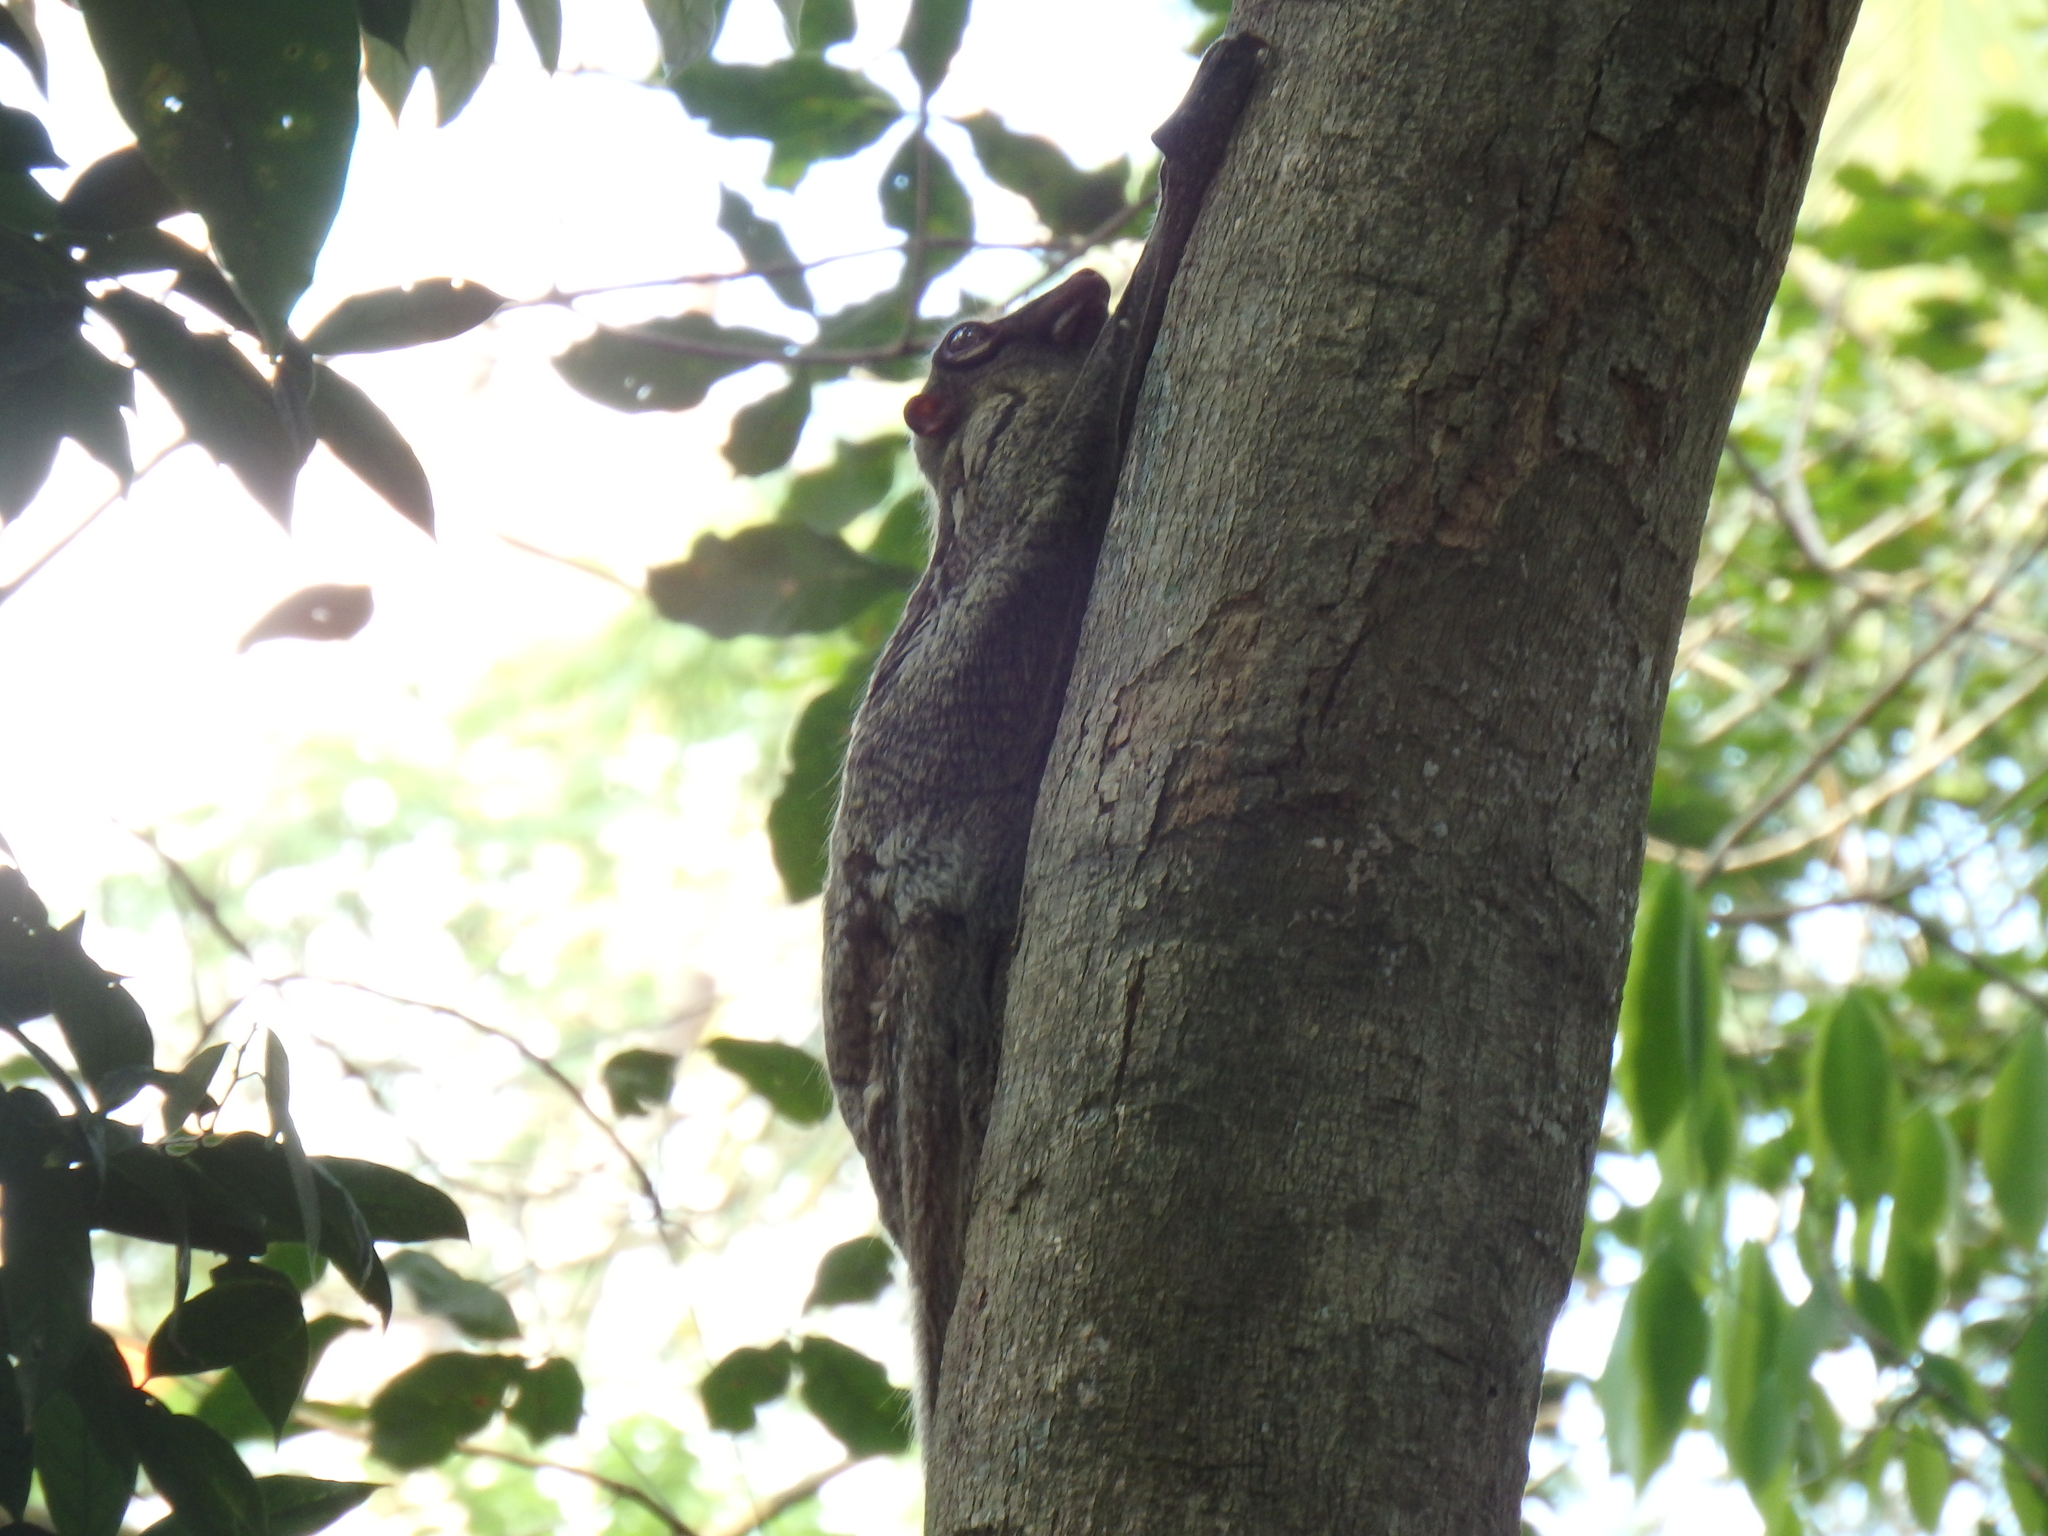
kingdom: Animalia
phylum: Chordata
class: Mammalia
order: Dermoptera
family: Cynocephalidae
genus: Galeopterus
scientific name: Galeopterus variegatus
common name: Sunda flying lemur
